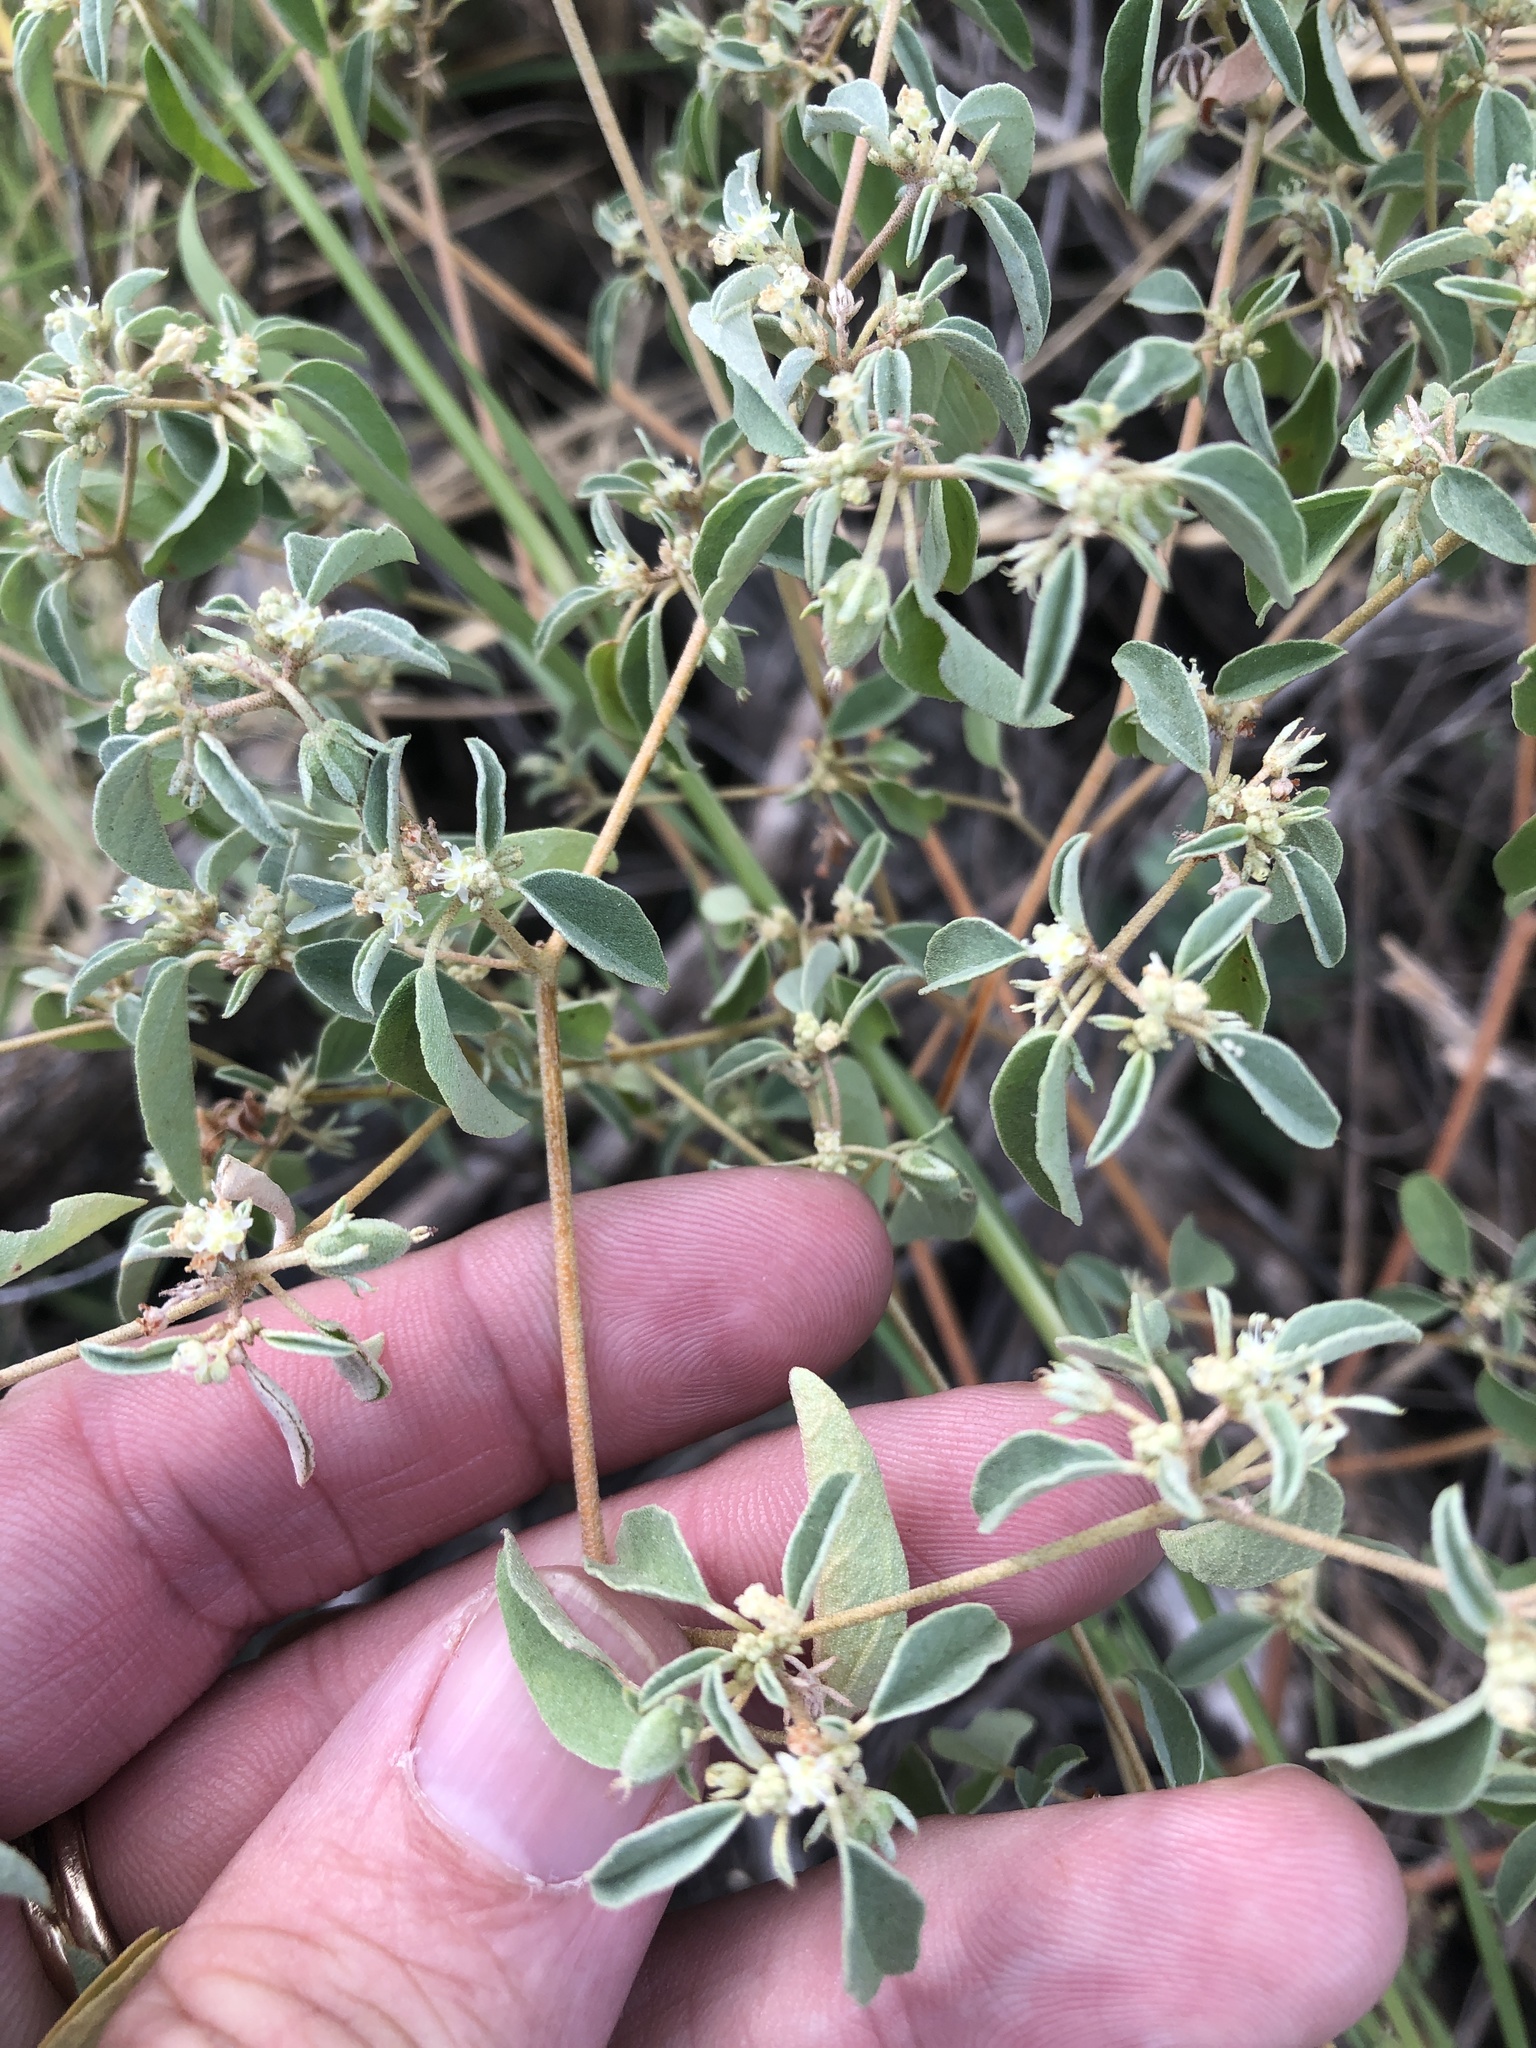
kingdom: Plantae
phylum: Tracheophyta
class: Magnoliopsida
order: Malpighiales
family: Euphorbiaceae
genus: Croton
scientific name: Croton monanthogynus
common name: One-seed croton
